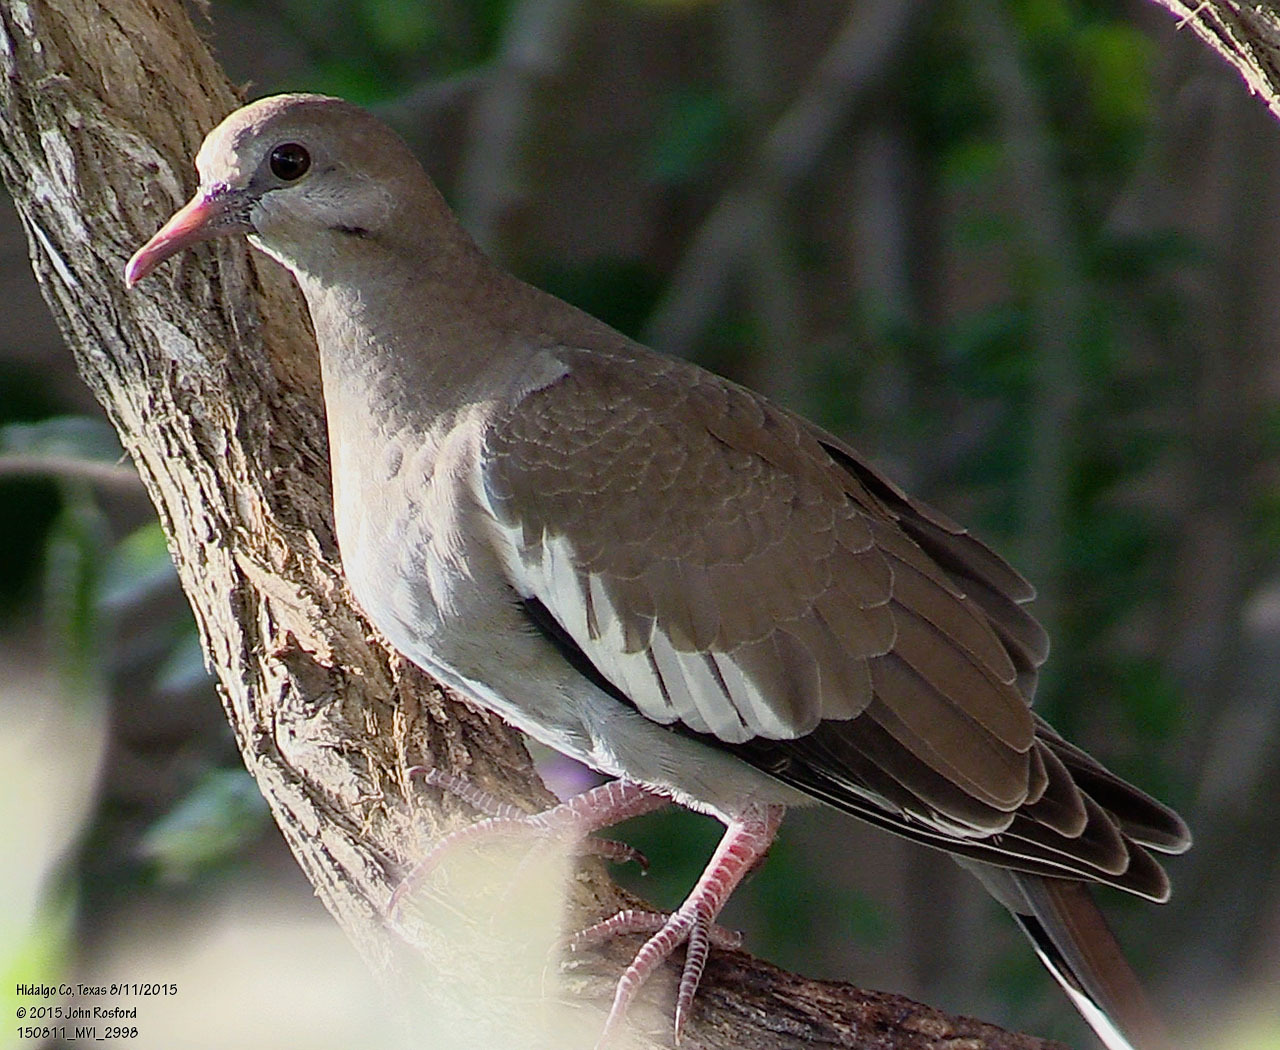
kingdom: Animalia
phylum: Chordata
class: Aves
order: Columbiformes
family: Columbidae
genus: Zenaida
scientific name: Zenaida asiatica
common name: White-winged dove
